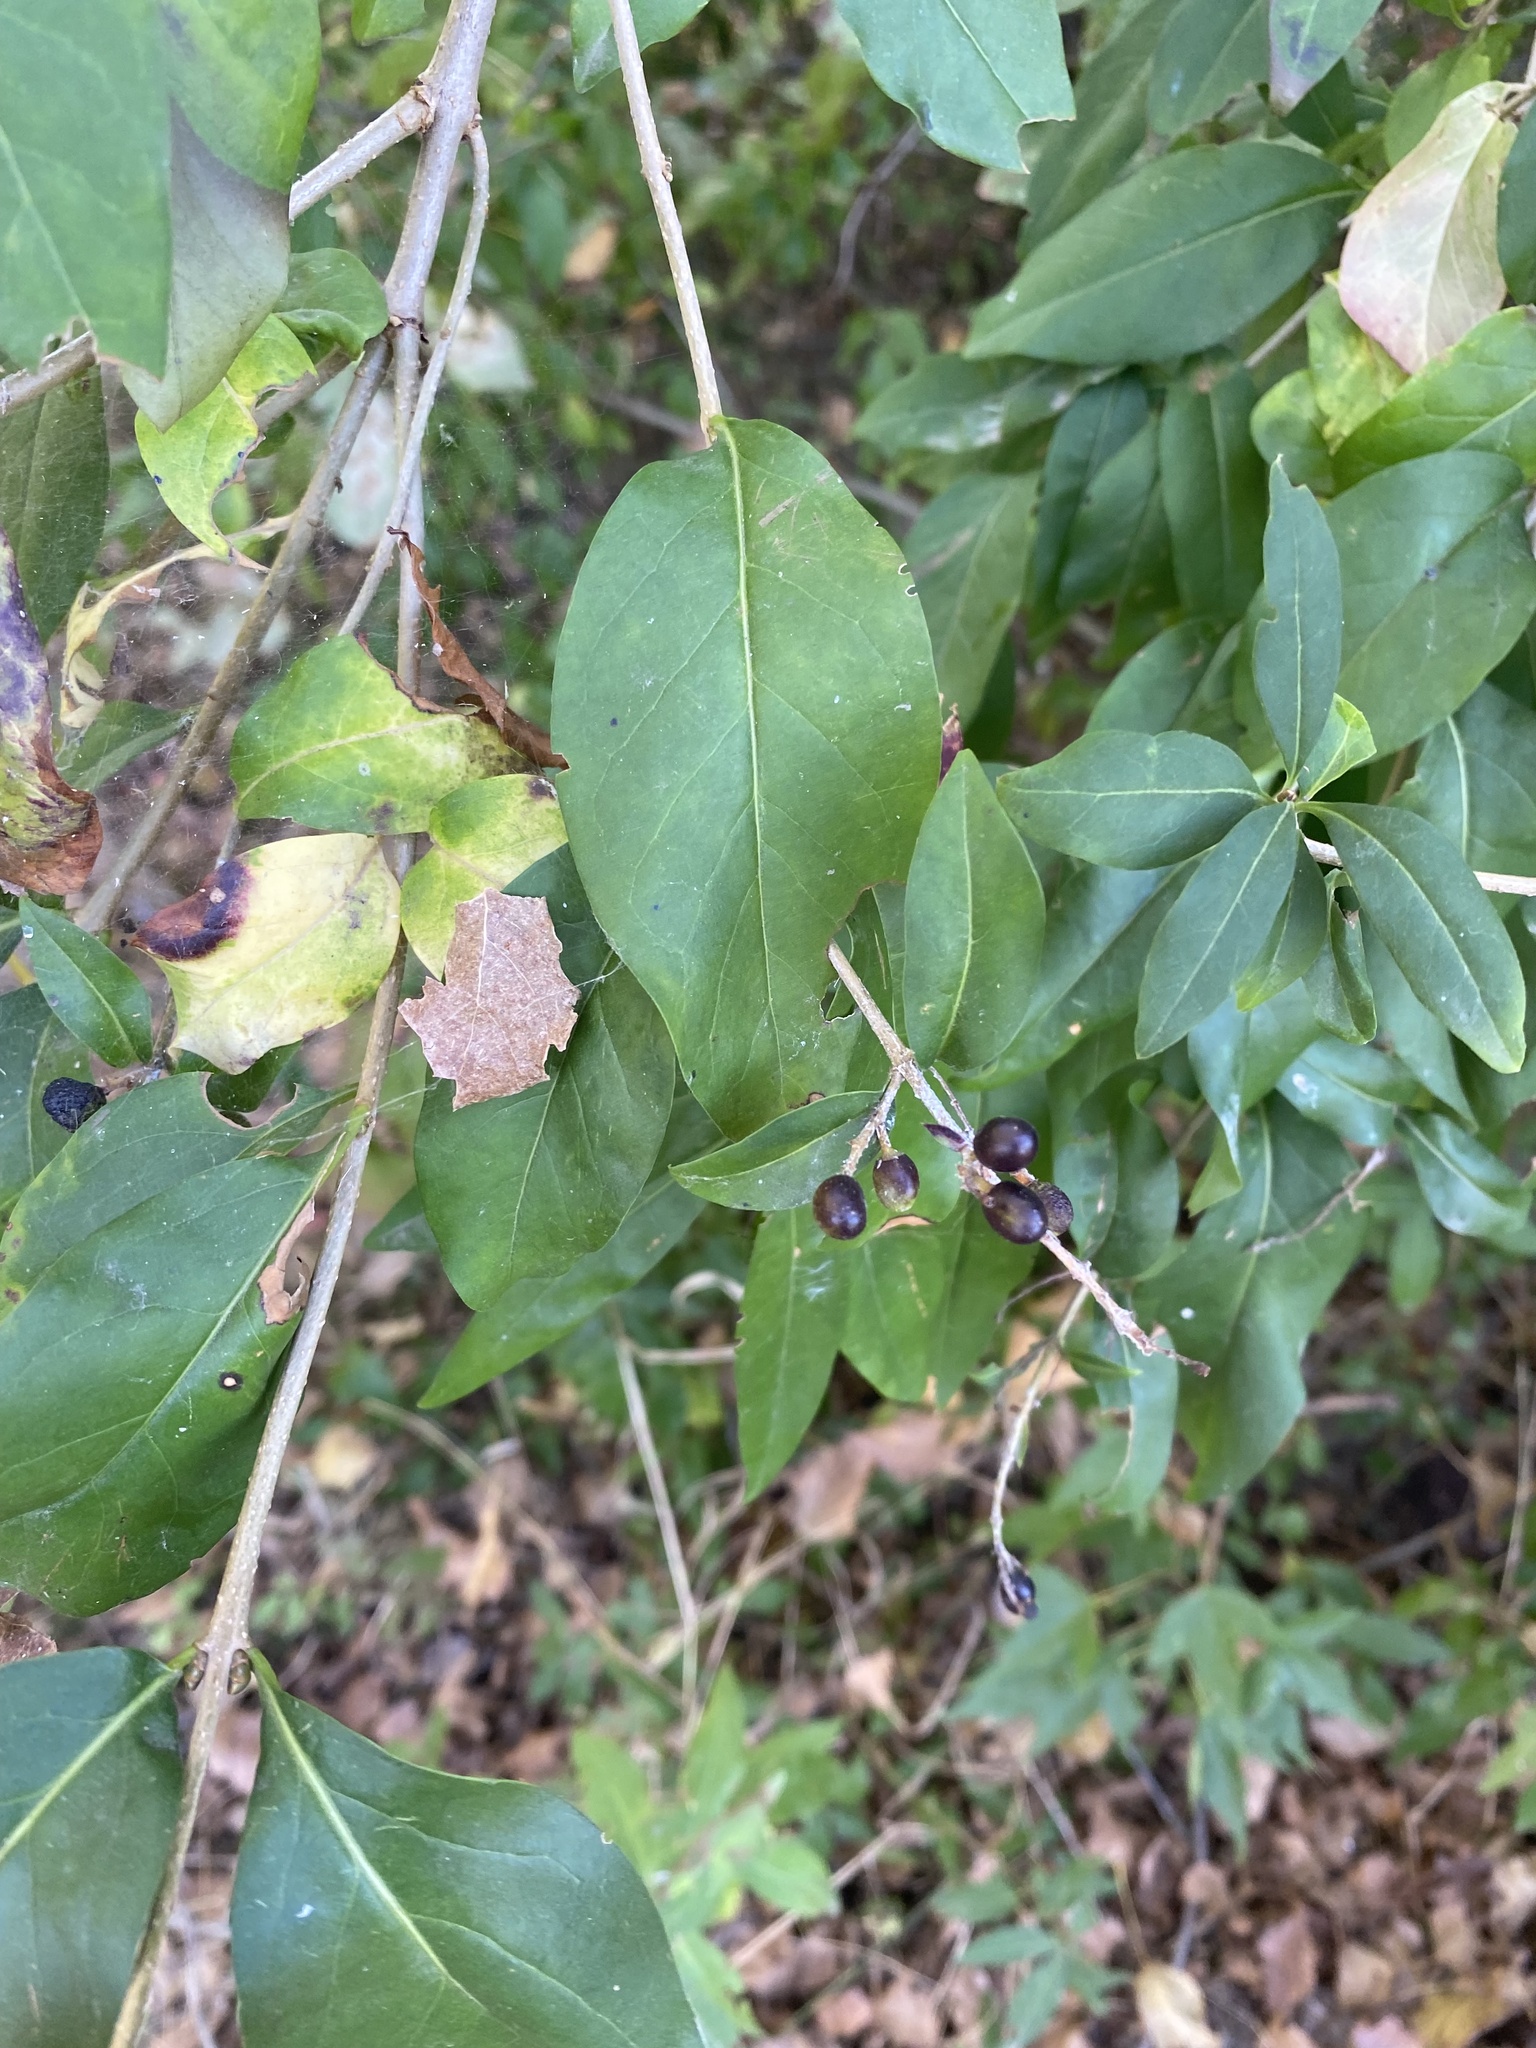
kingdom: Plantae
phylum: Tracheophyta
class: Magnoliopsida
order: Lamiales
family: Oleaceae
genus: Ligustrum
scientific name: Ligustrum vulgare
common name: Wild privet
